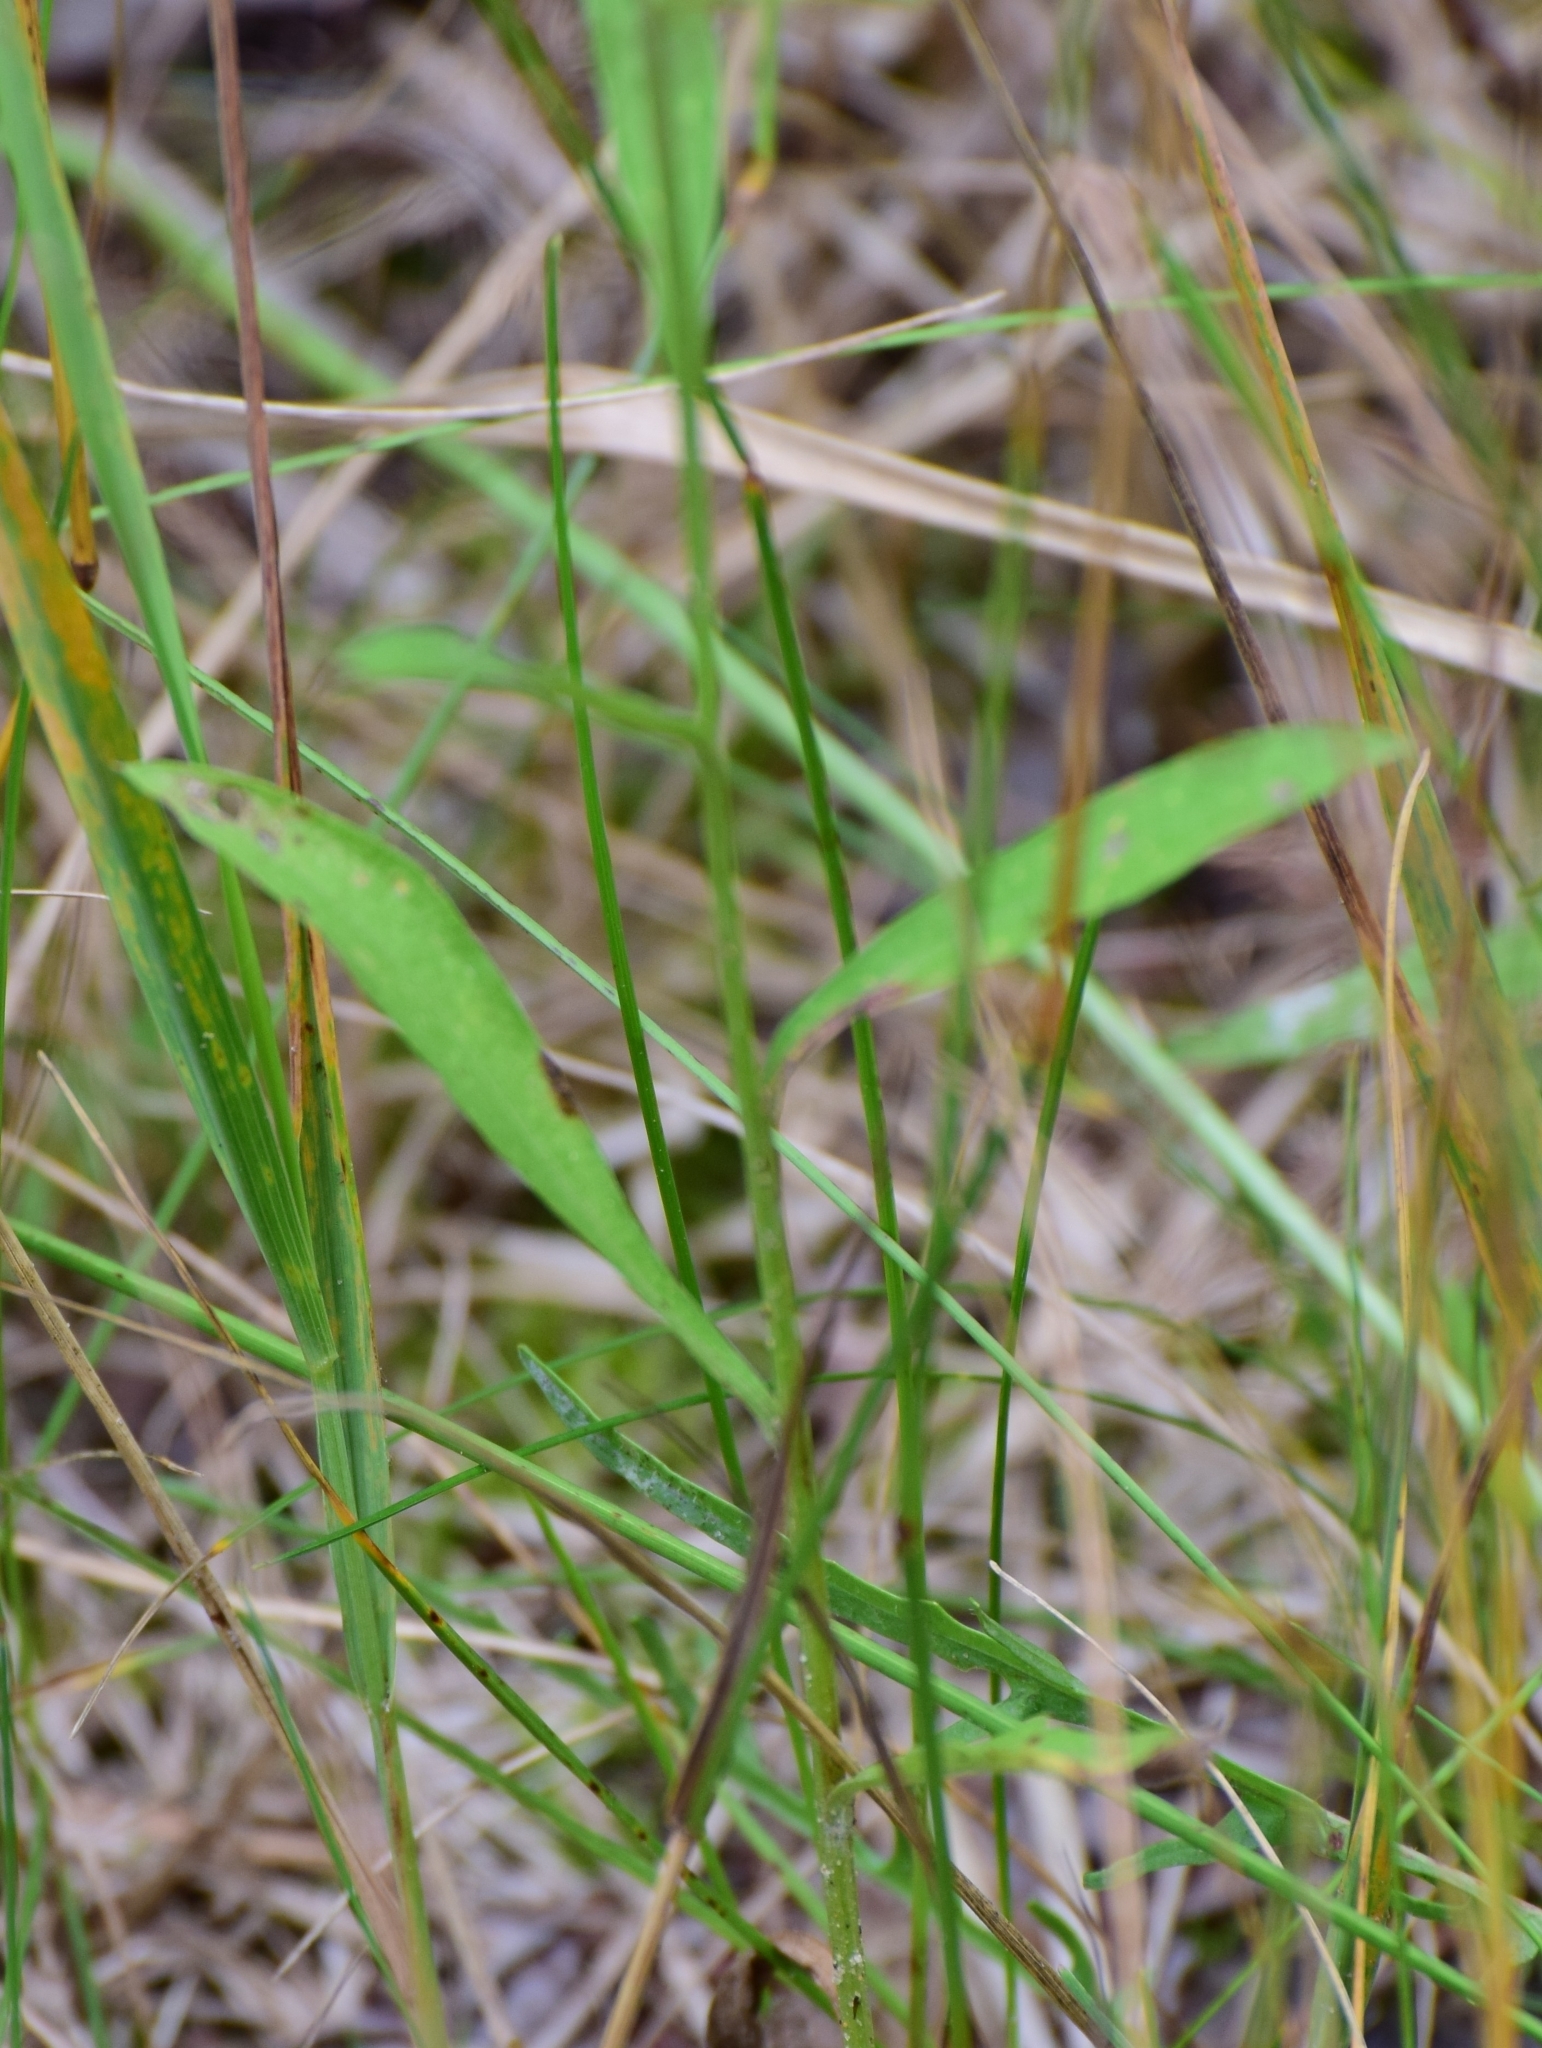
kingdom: Plantae
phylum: Tracheophyta
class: Magnoliopsida
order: Asterales
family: Asteraceae
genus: Scorzoneroides
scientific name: Scorzoneroides autumnalis
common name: Autumn hawkbit
